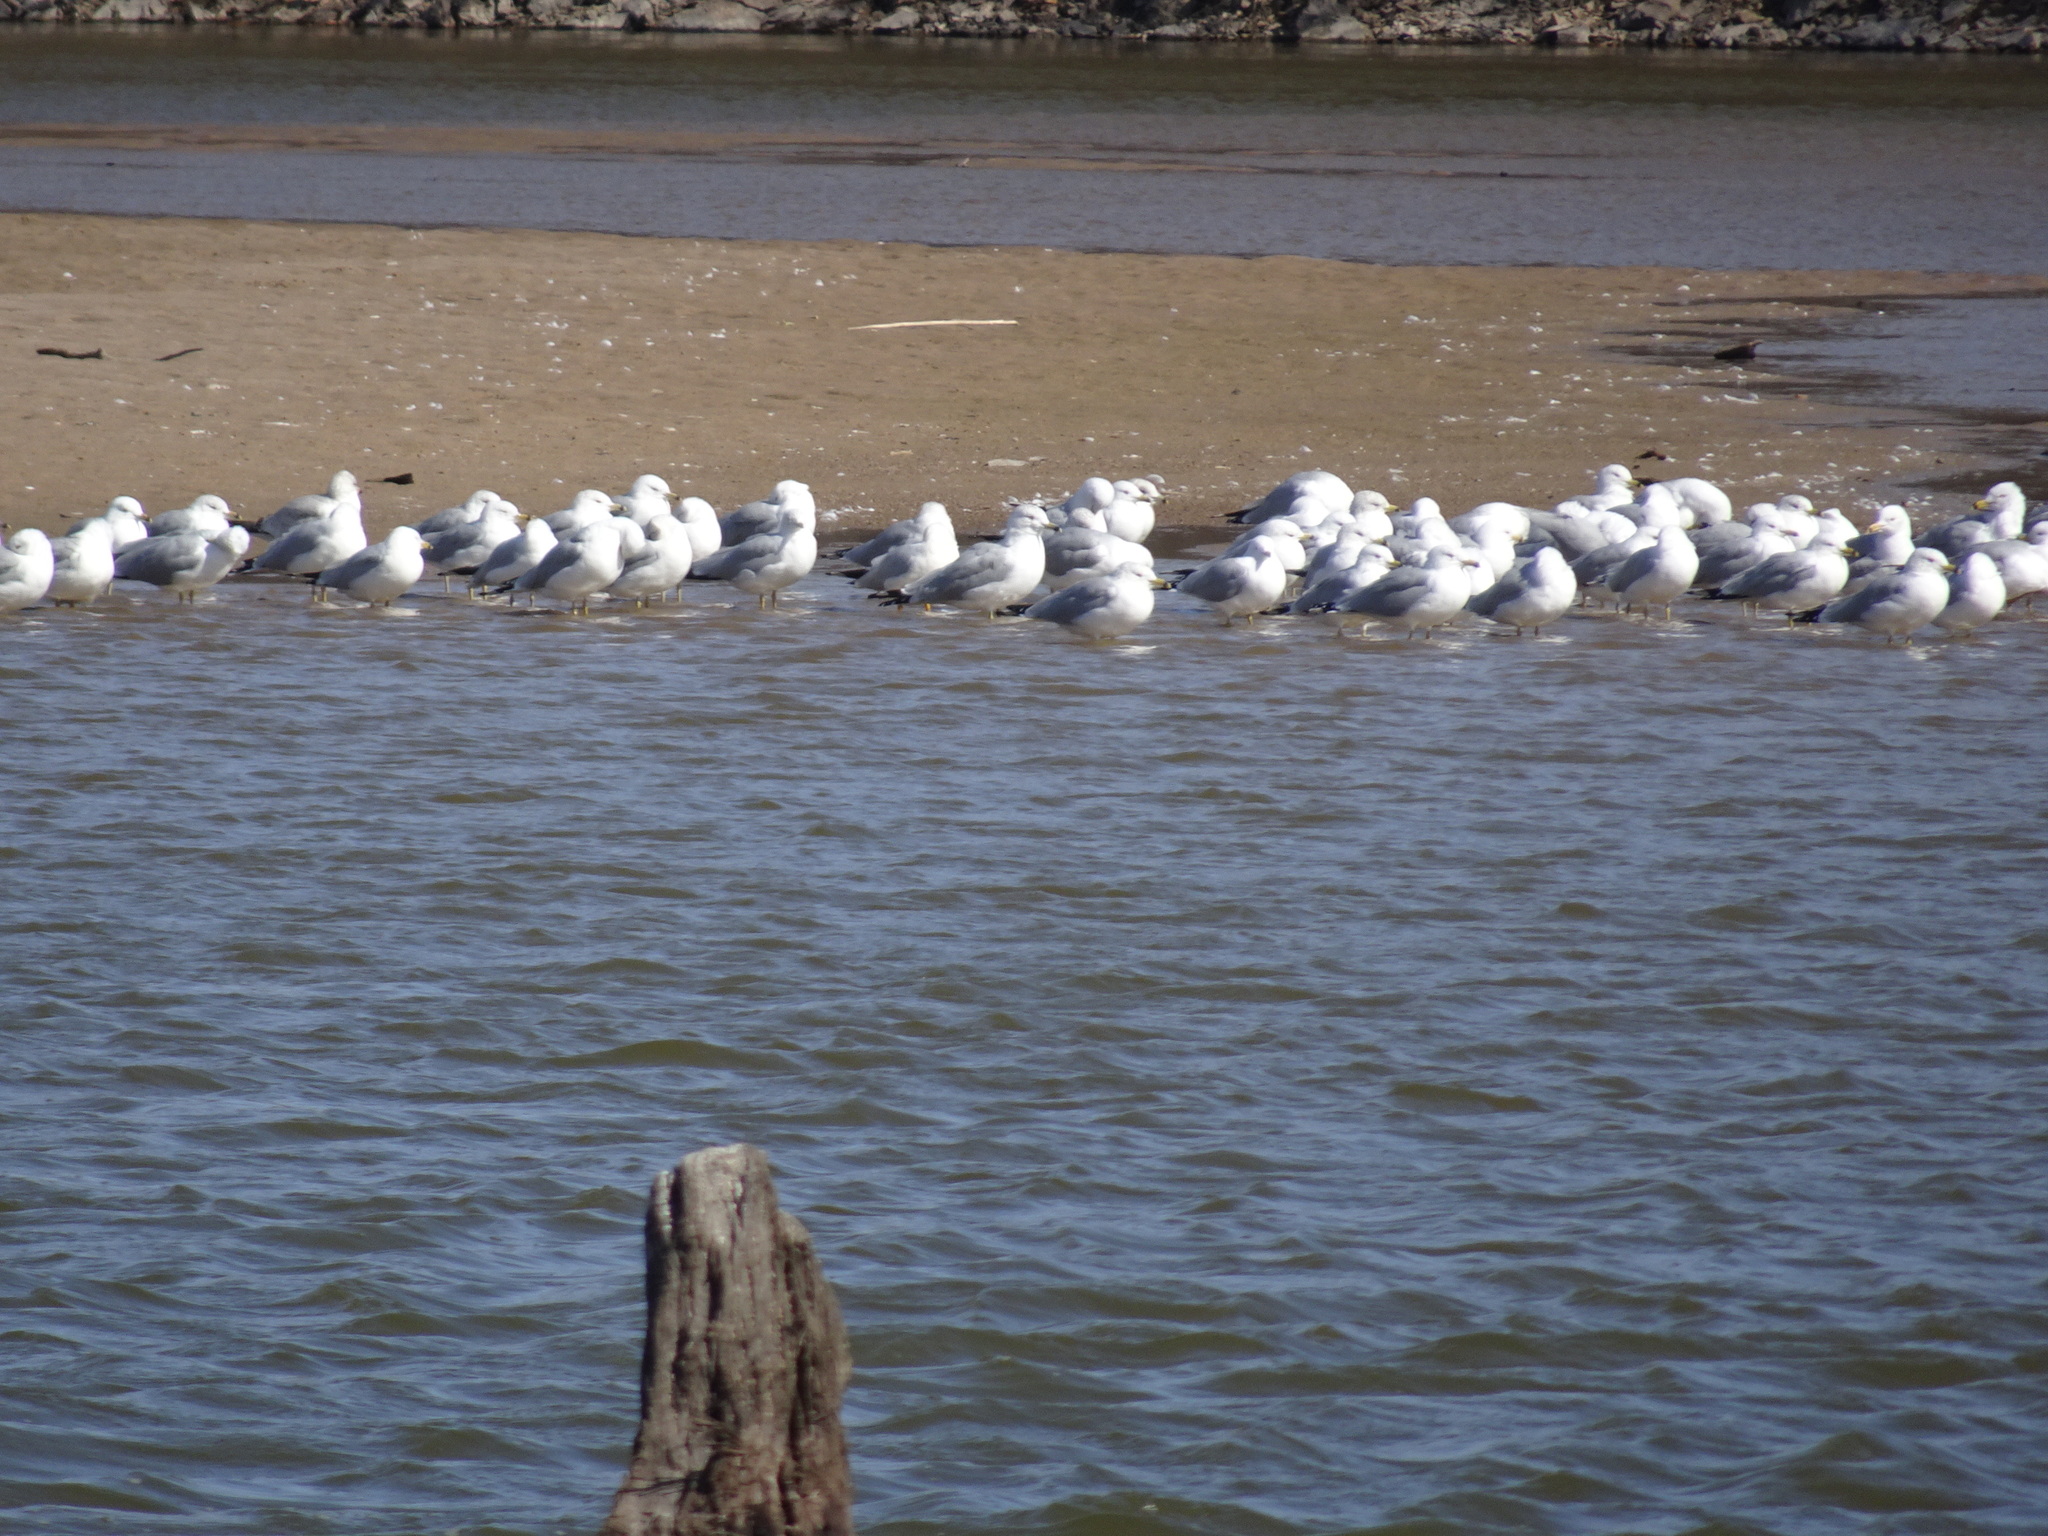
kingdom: Animalia
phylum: Chordata
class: Aves
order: Charadriiformes
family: Laridae
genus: Larus
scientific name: Larus delawarensis
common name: Ring-billed gull
